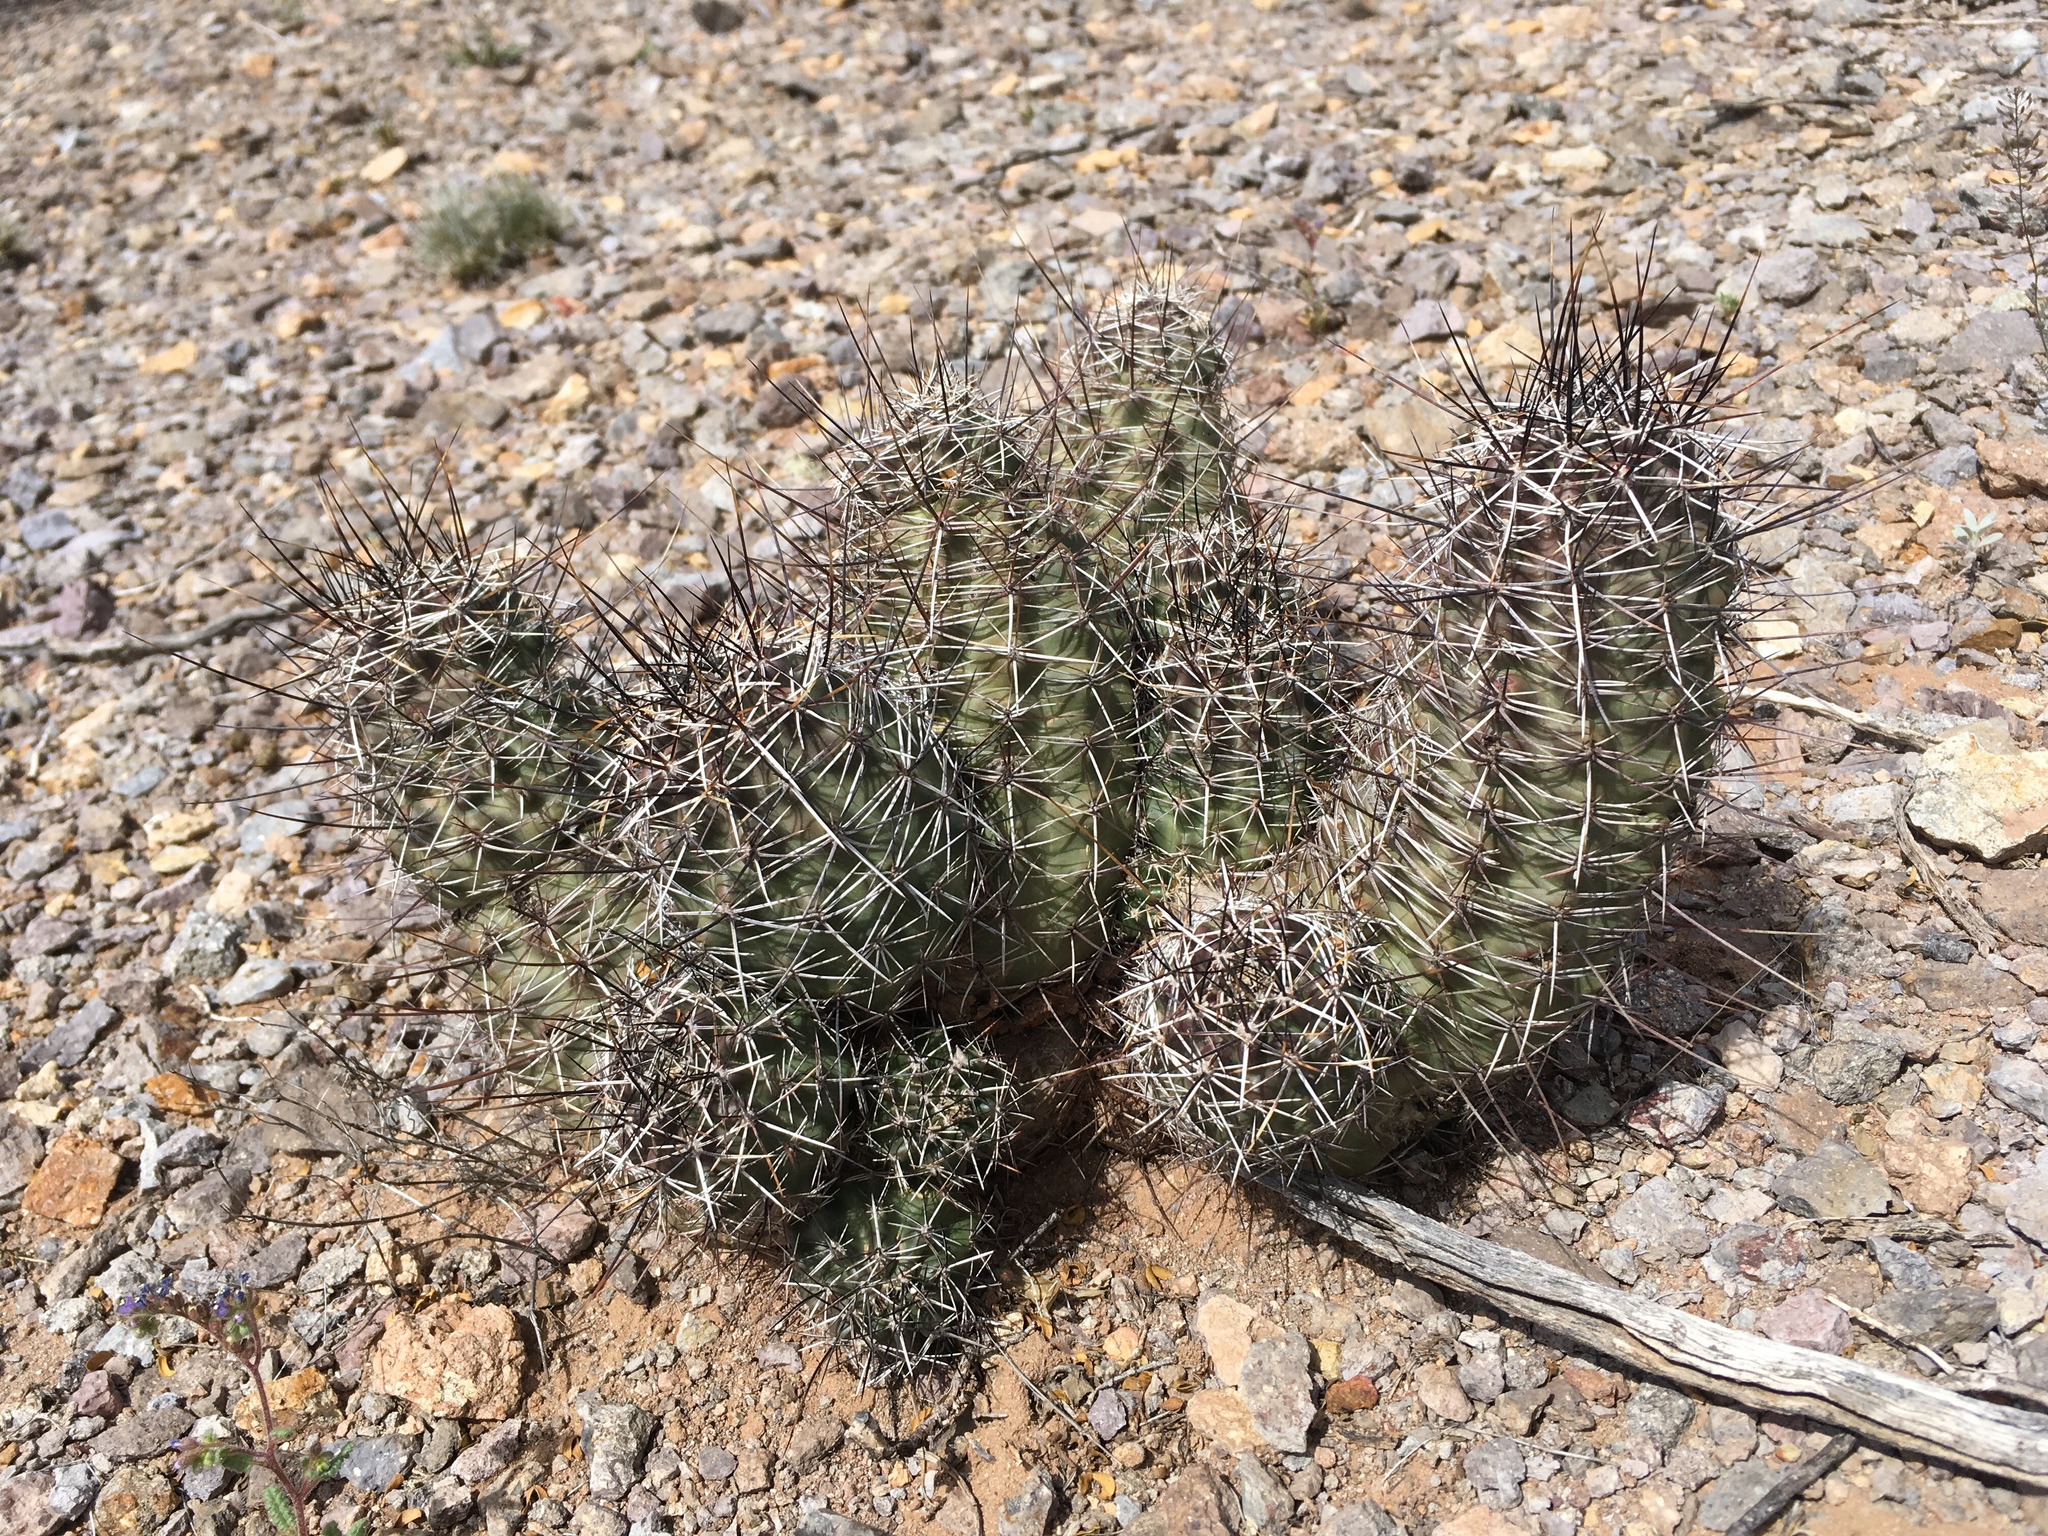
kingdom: Plantae
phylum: Tracheophyta
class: Magnoliopsida
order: Caryophyllales
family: Cactaceae
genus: Echinocereus
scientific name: Echinocereus fendleri
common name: Fendler's hedgehog cactus
